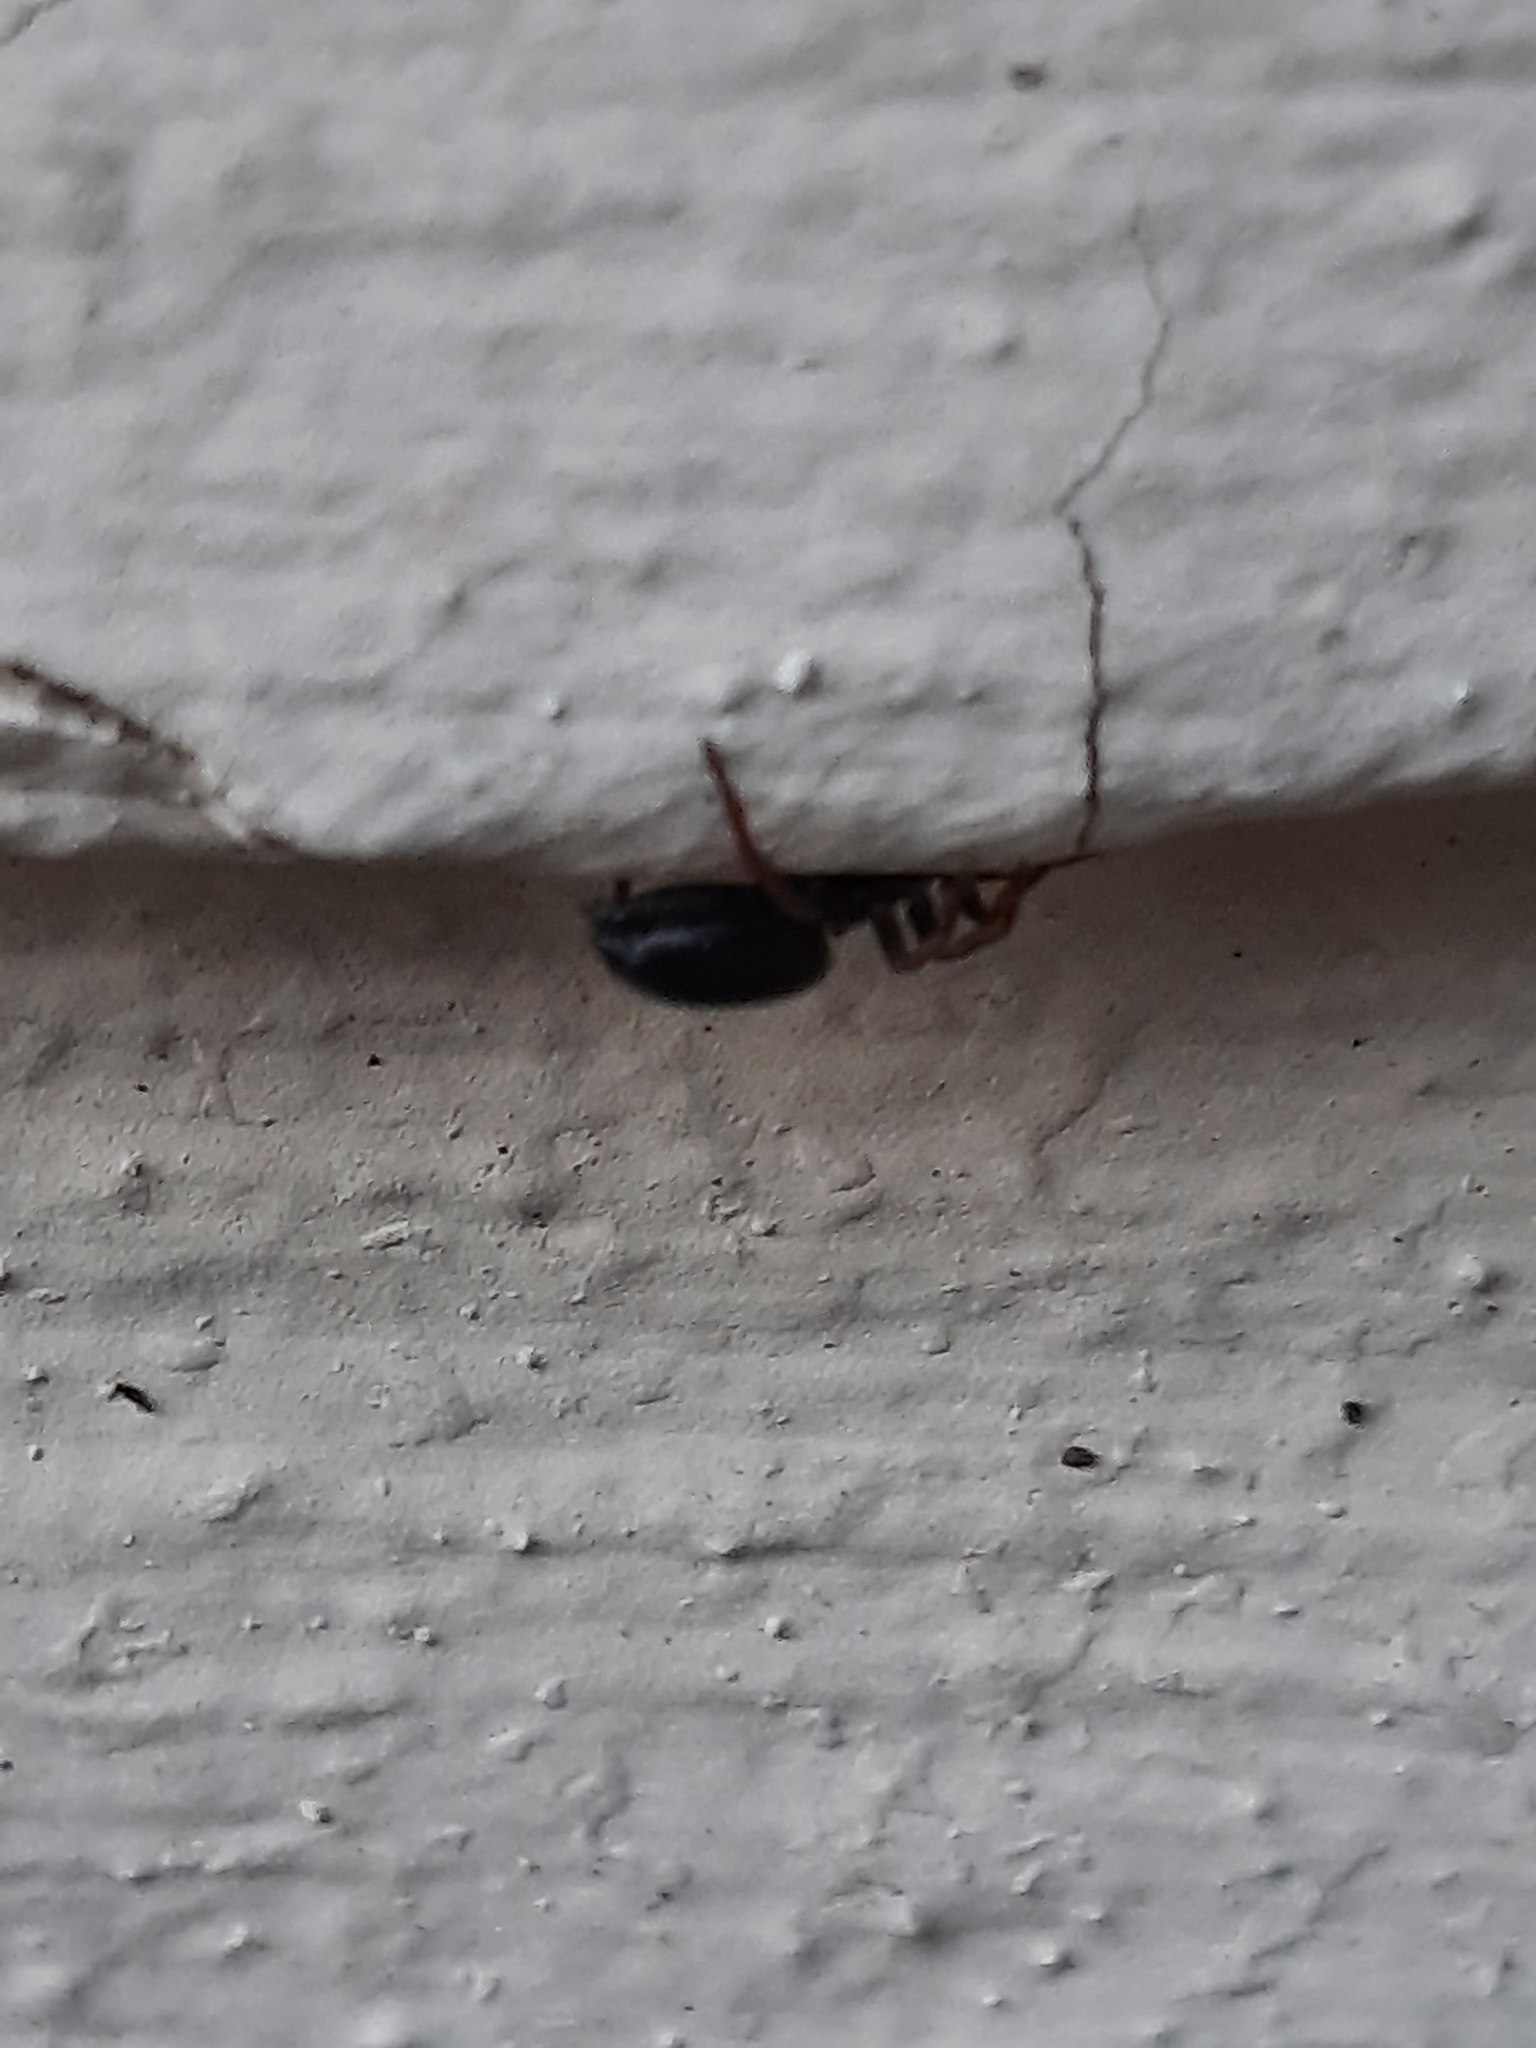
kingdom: Animalia
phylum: Arthropoda
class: Arachnida
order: Araneae
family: Gnaphosidae
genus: Trachyzelotes
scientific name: Trachyzelotes pedestris
